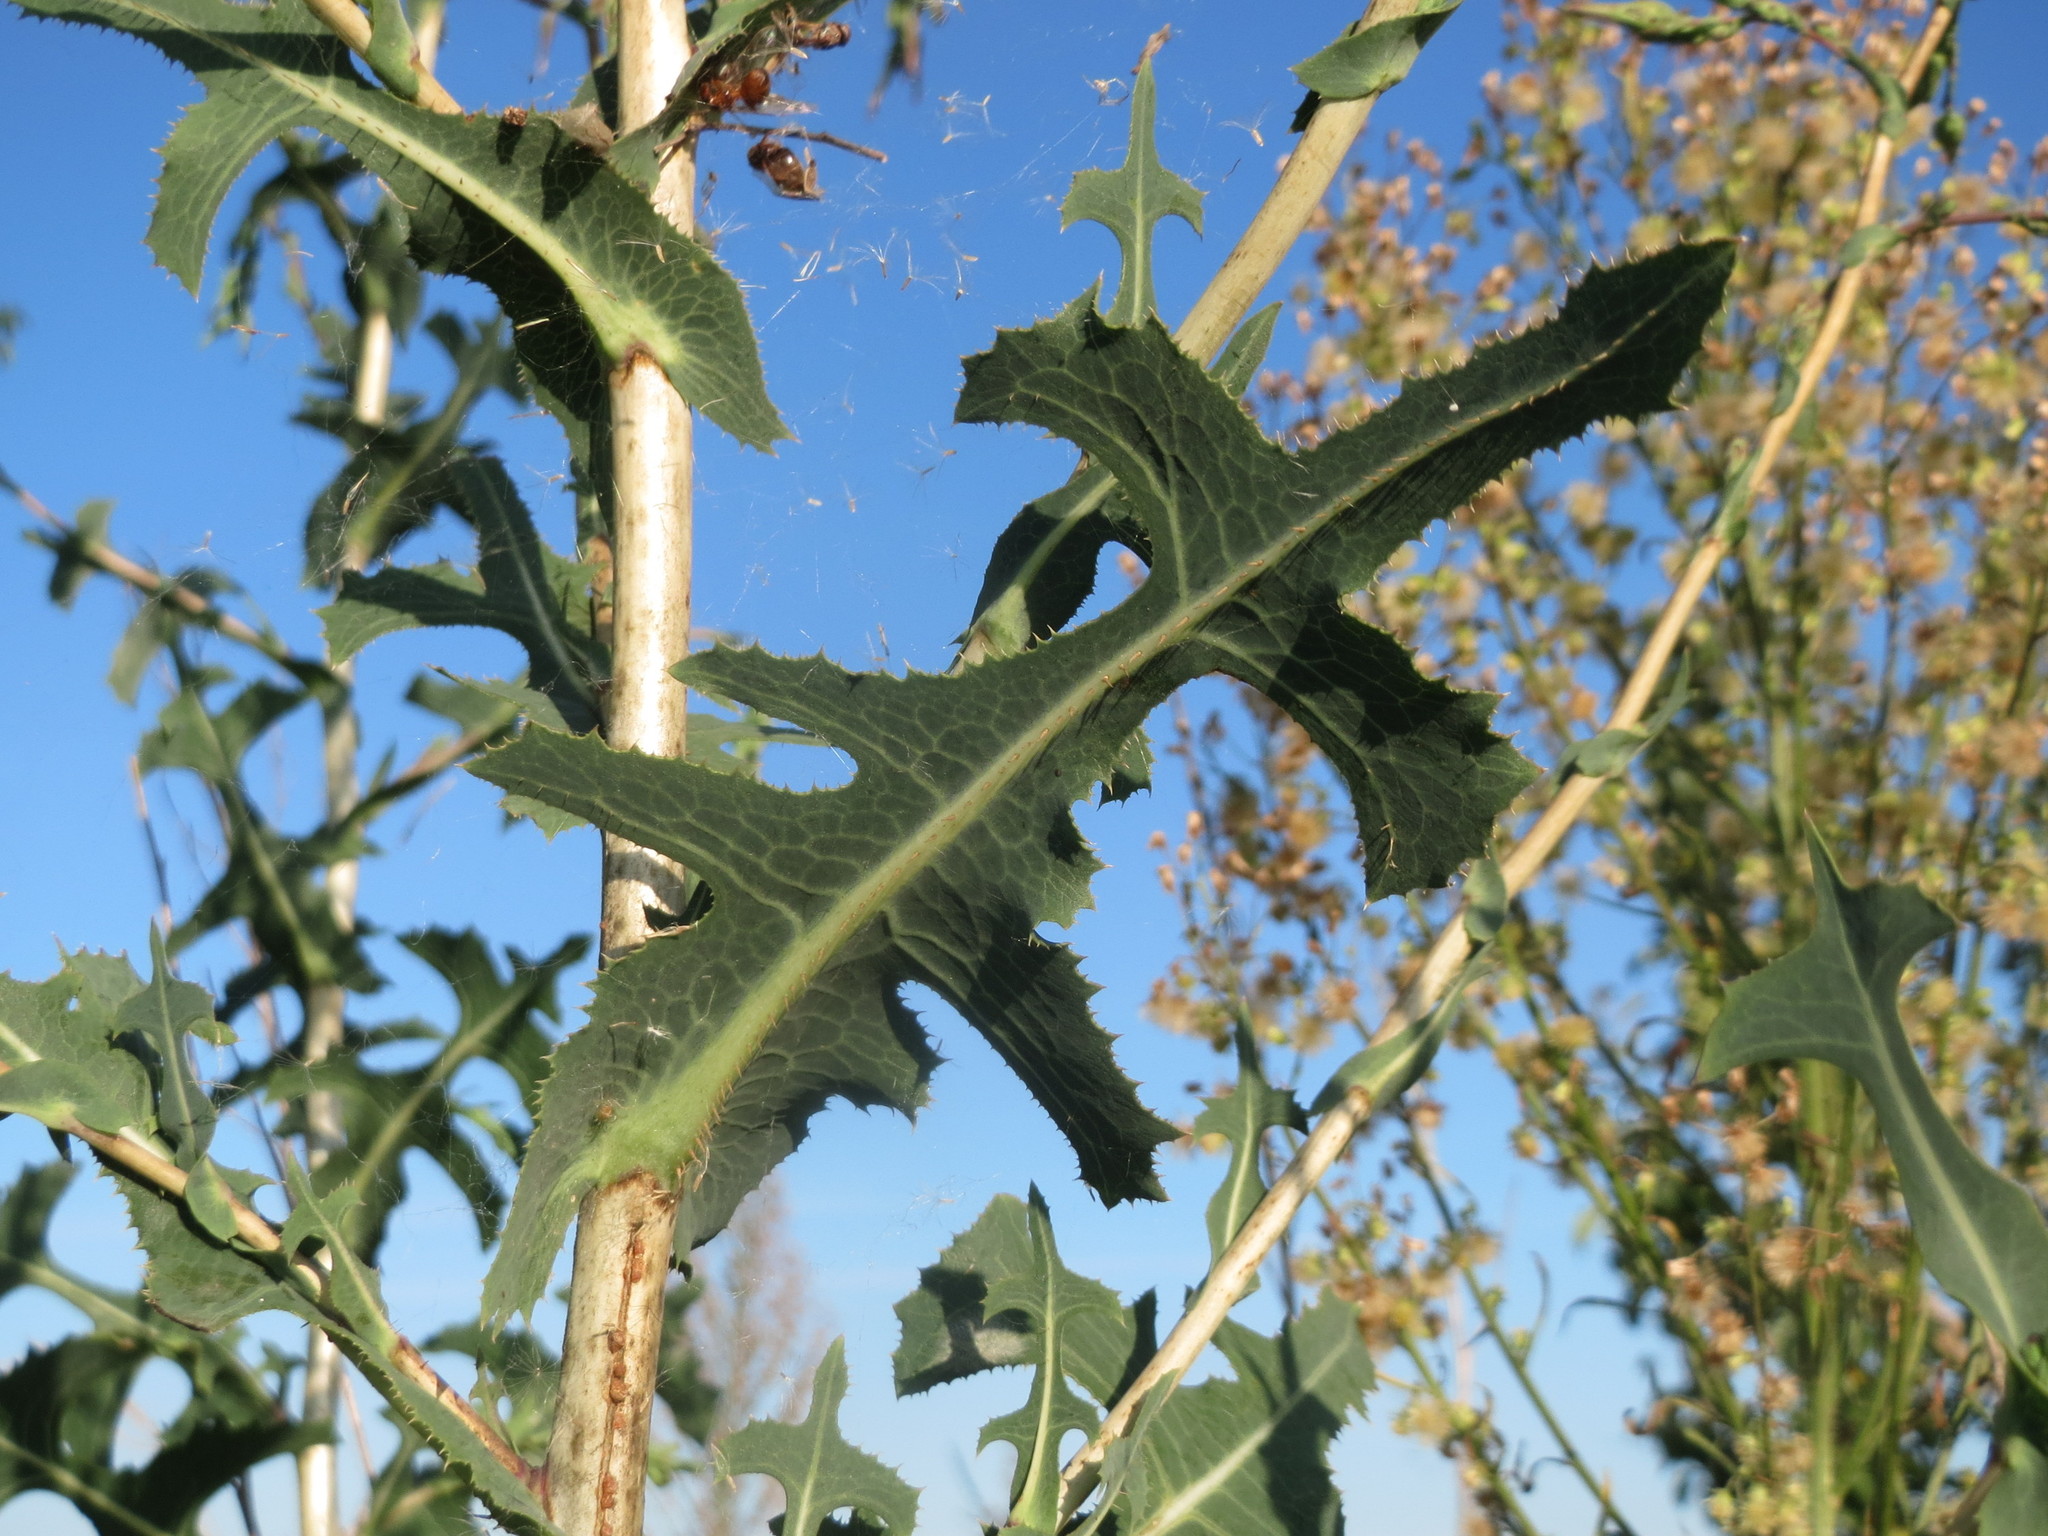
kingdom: Plantae
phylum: Tracheophyta
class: Magnoliopsida
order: Asterales
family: Asteraceae
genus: Lactuca
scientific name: Lactuca serriola
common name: Prickly lettuce
